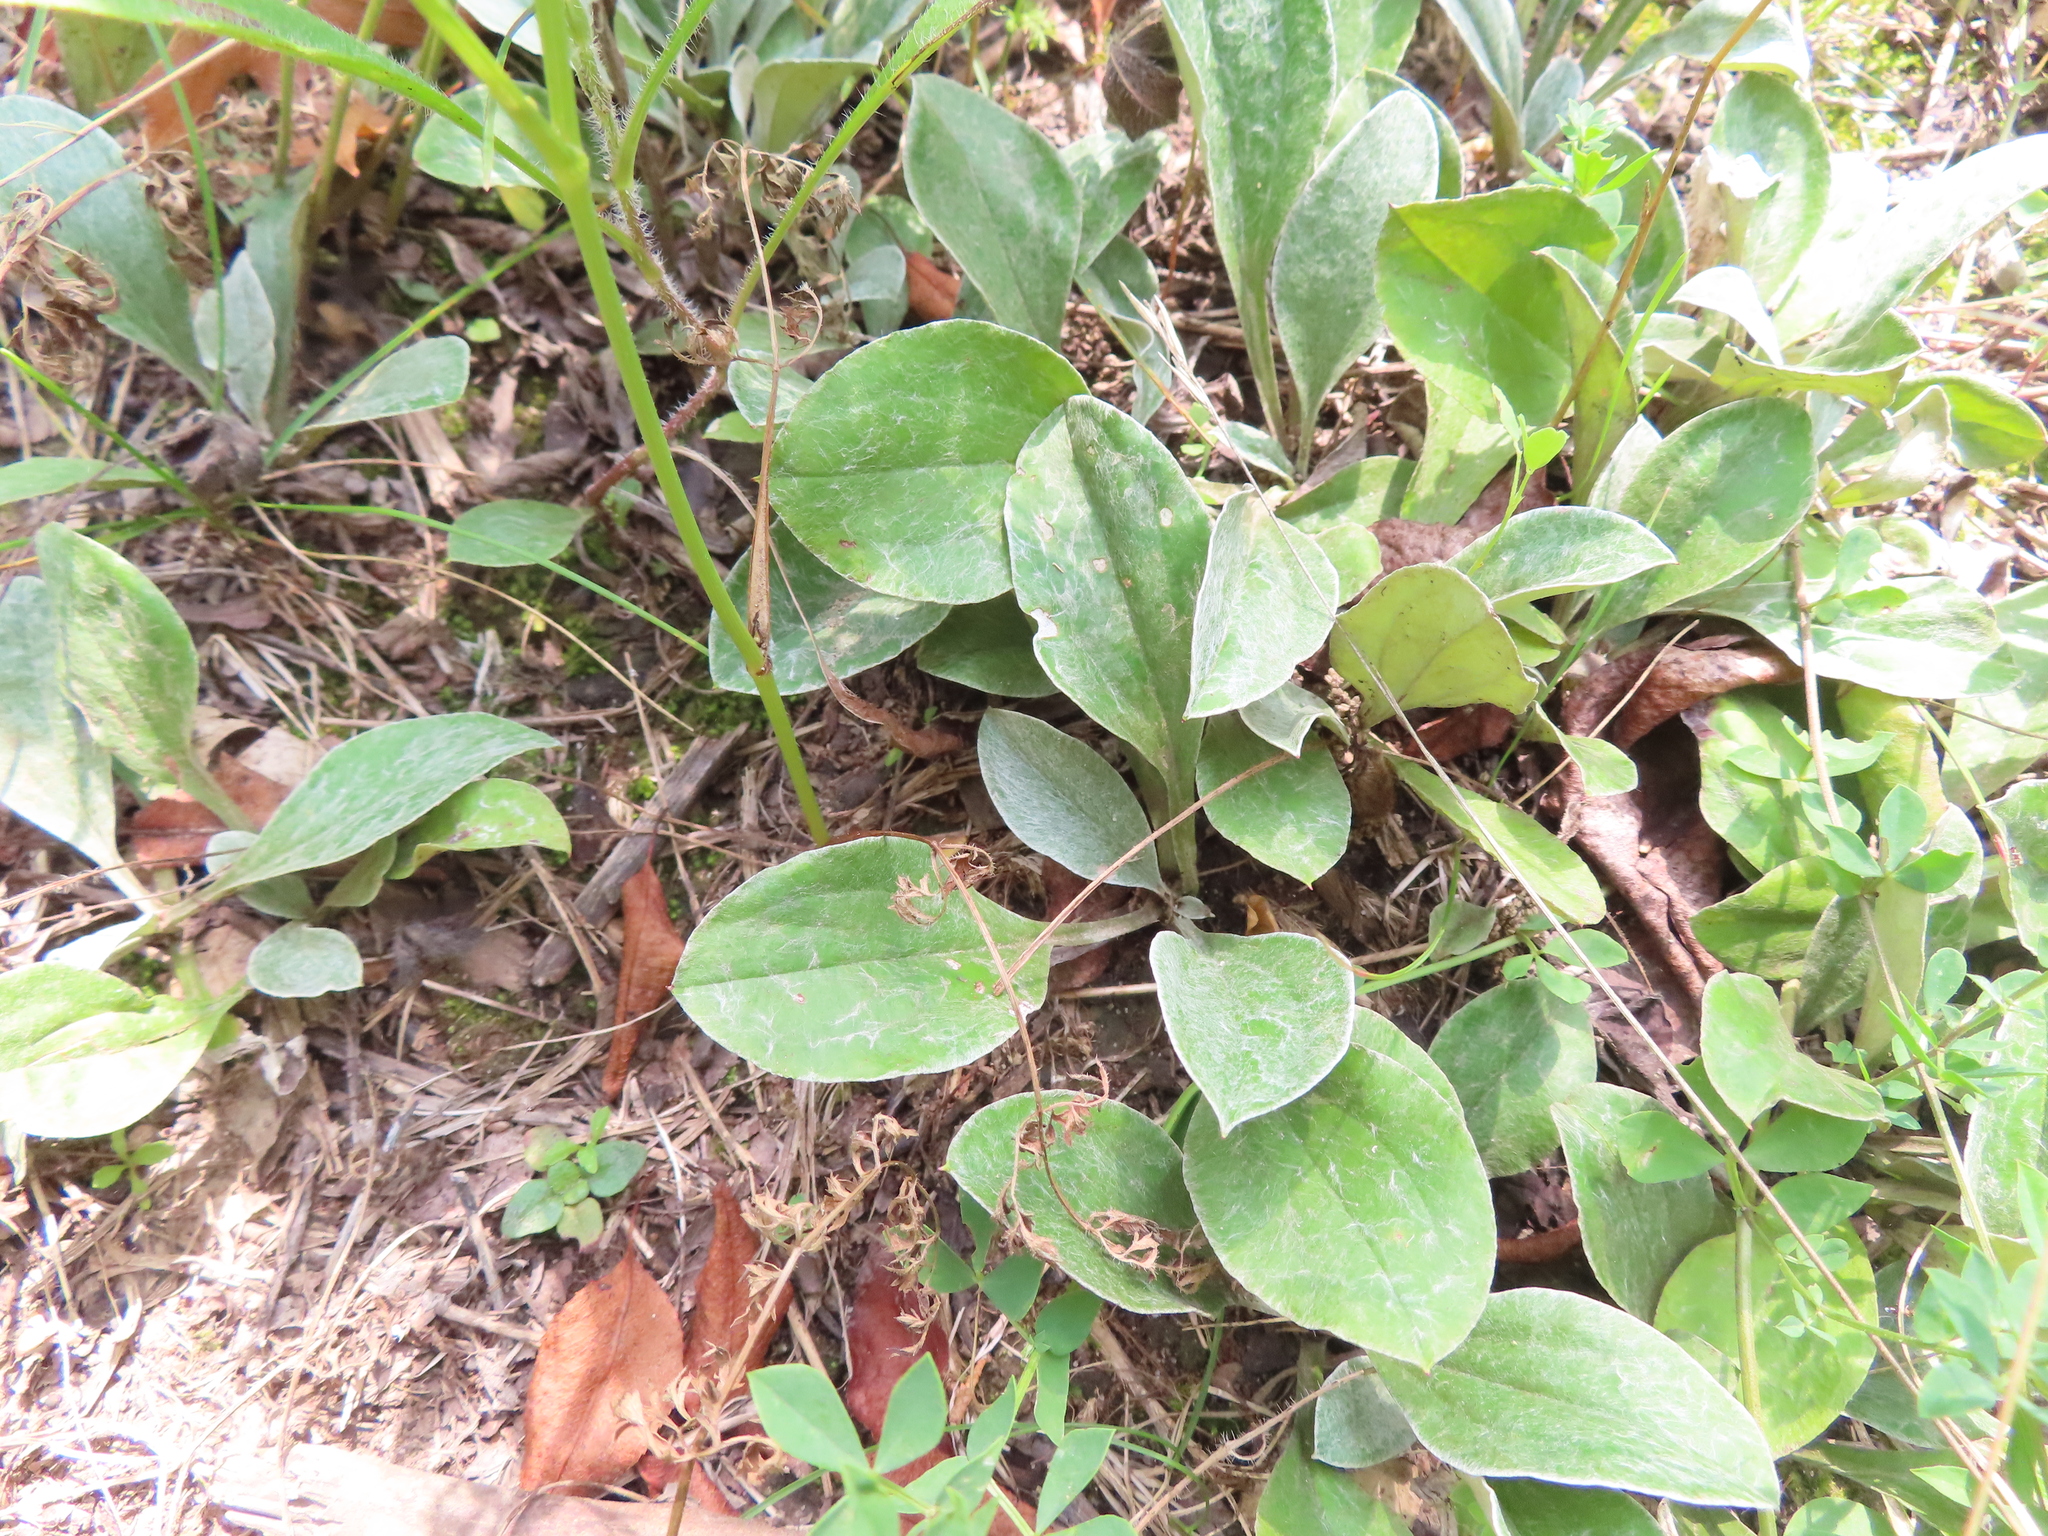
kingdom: Plantae
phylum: Tracheophyta
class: Magnoliopsida
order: Asterales
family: Asteraceae
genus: Antennaria
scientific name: Antennaria parlinii
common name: Parlin's pussytoes
